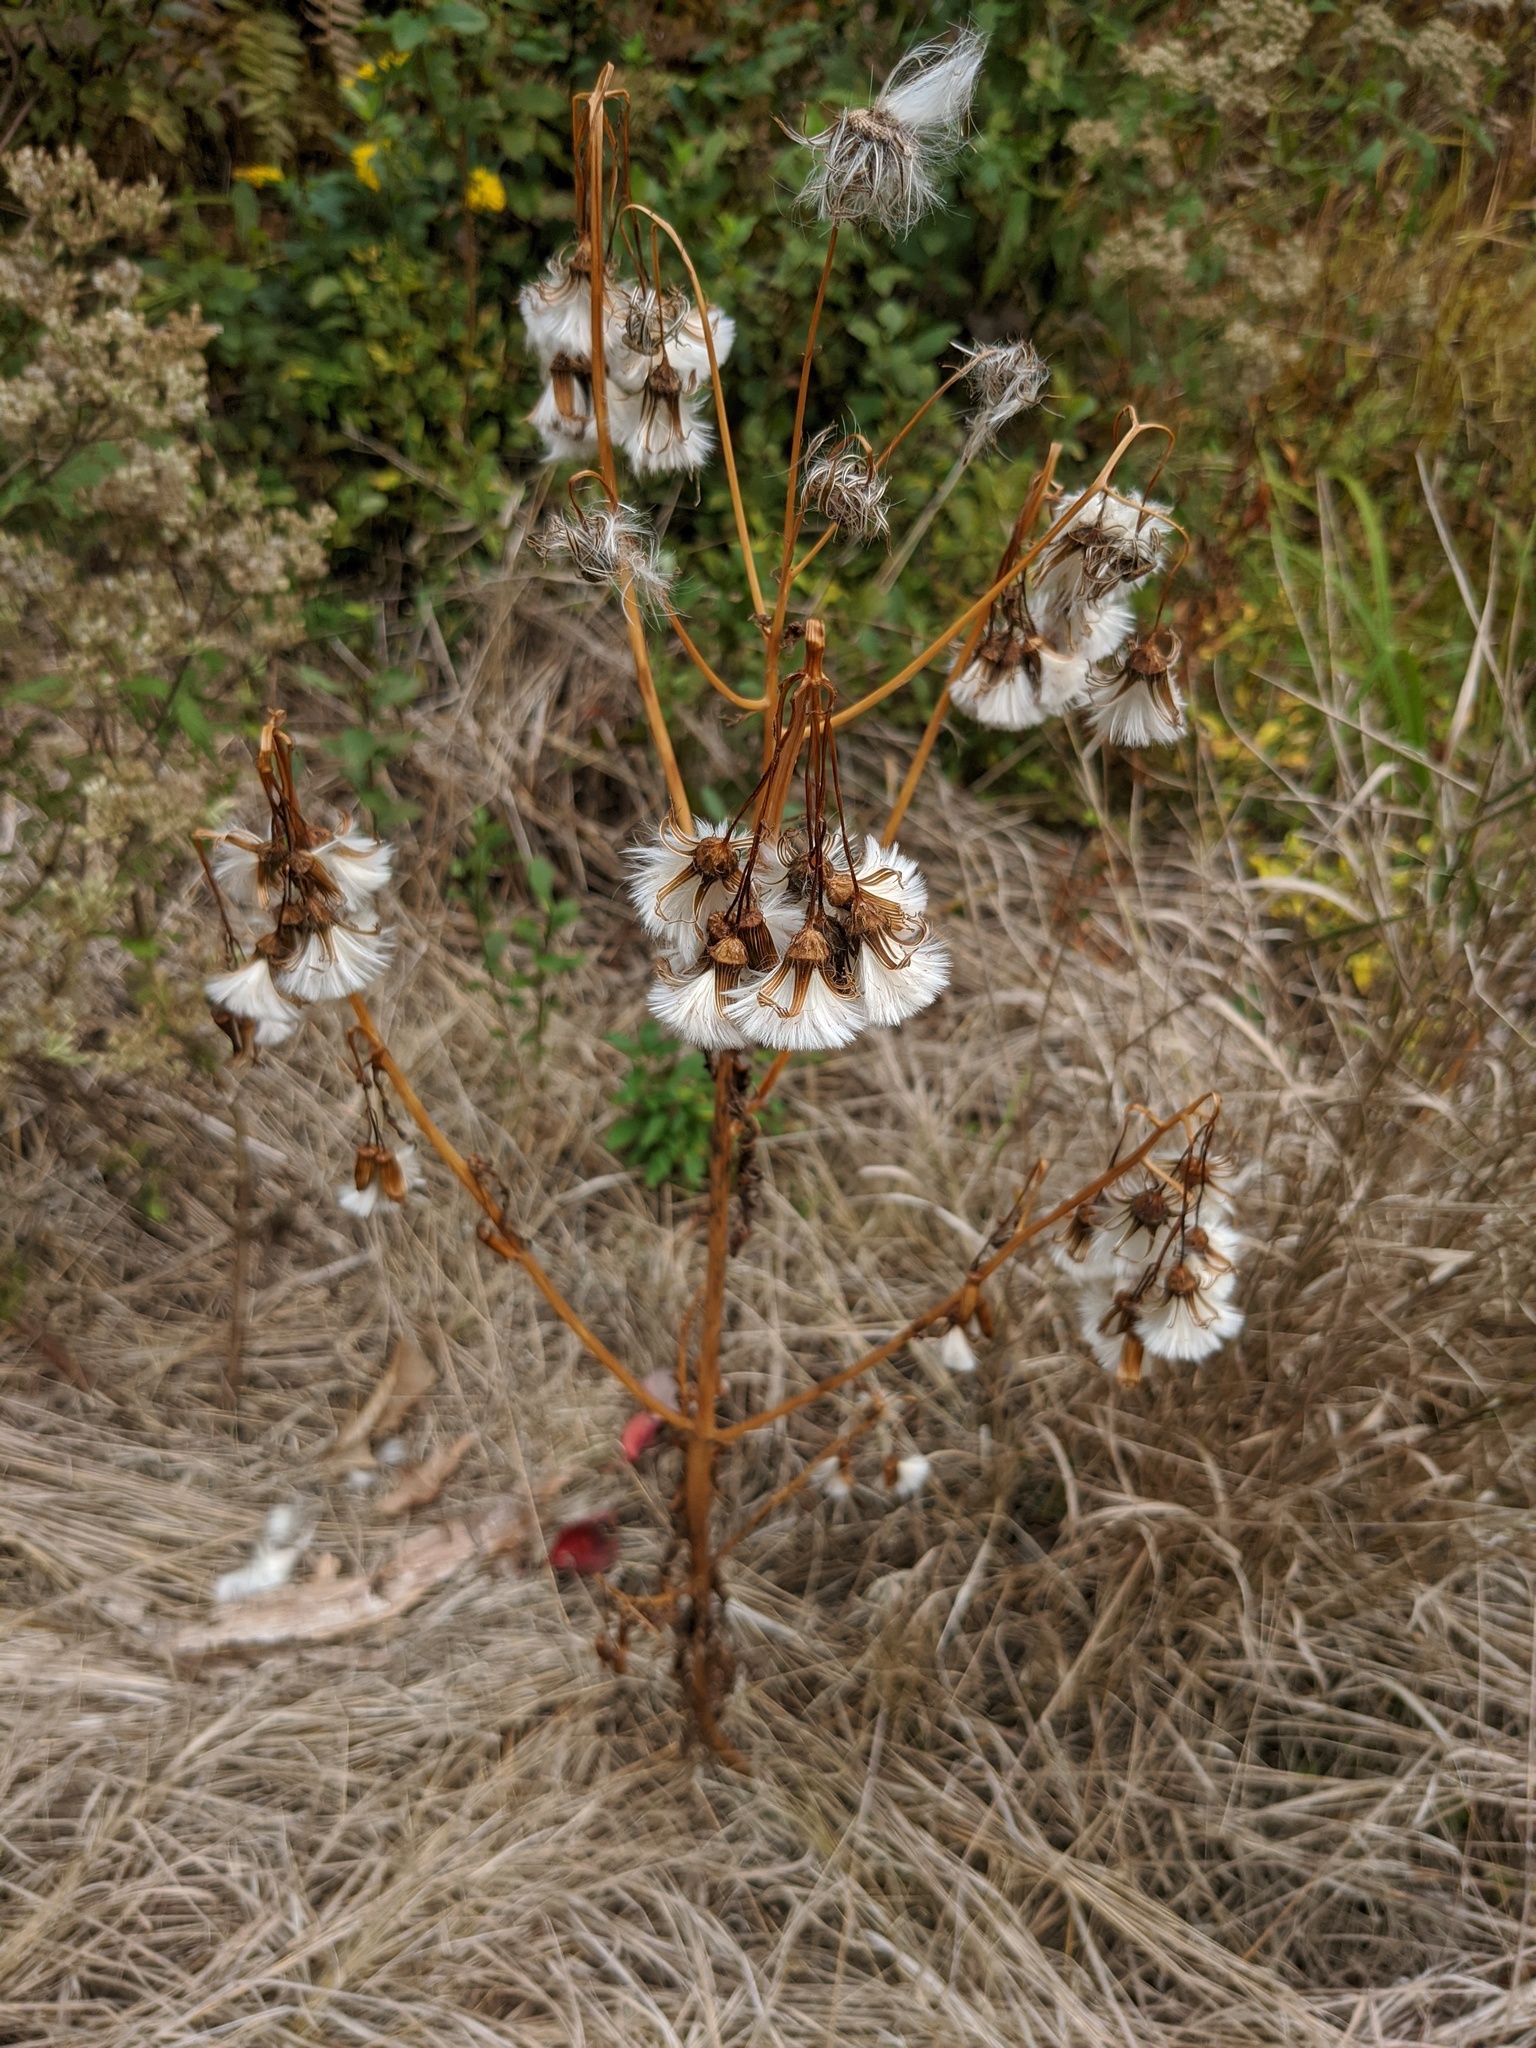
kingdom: Plantae
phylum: Tracheophyta
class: Magnoliopsida
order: Asterales
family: Asteraceae
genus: Erechtites
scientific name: Erechtites hieraciifolius
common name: American burnweed
